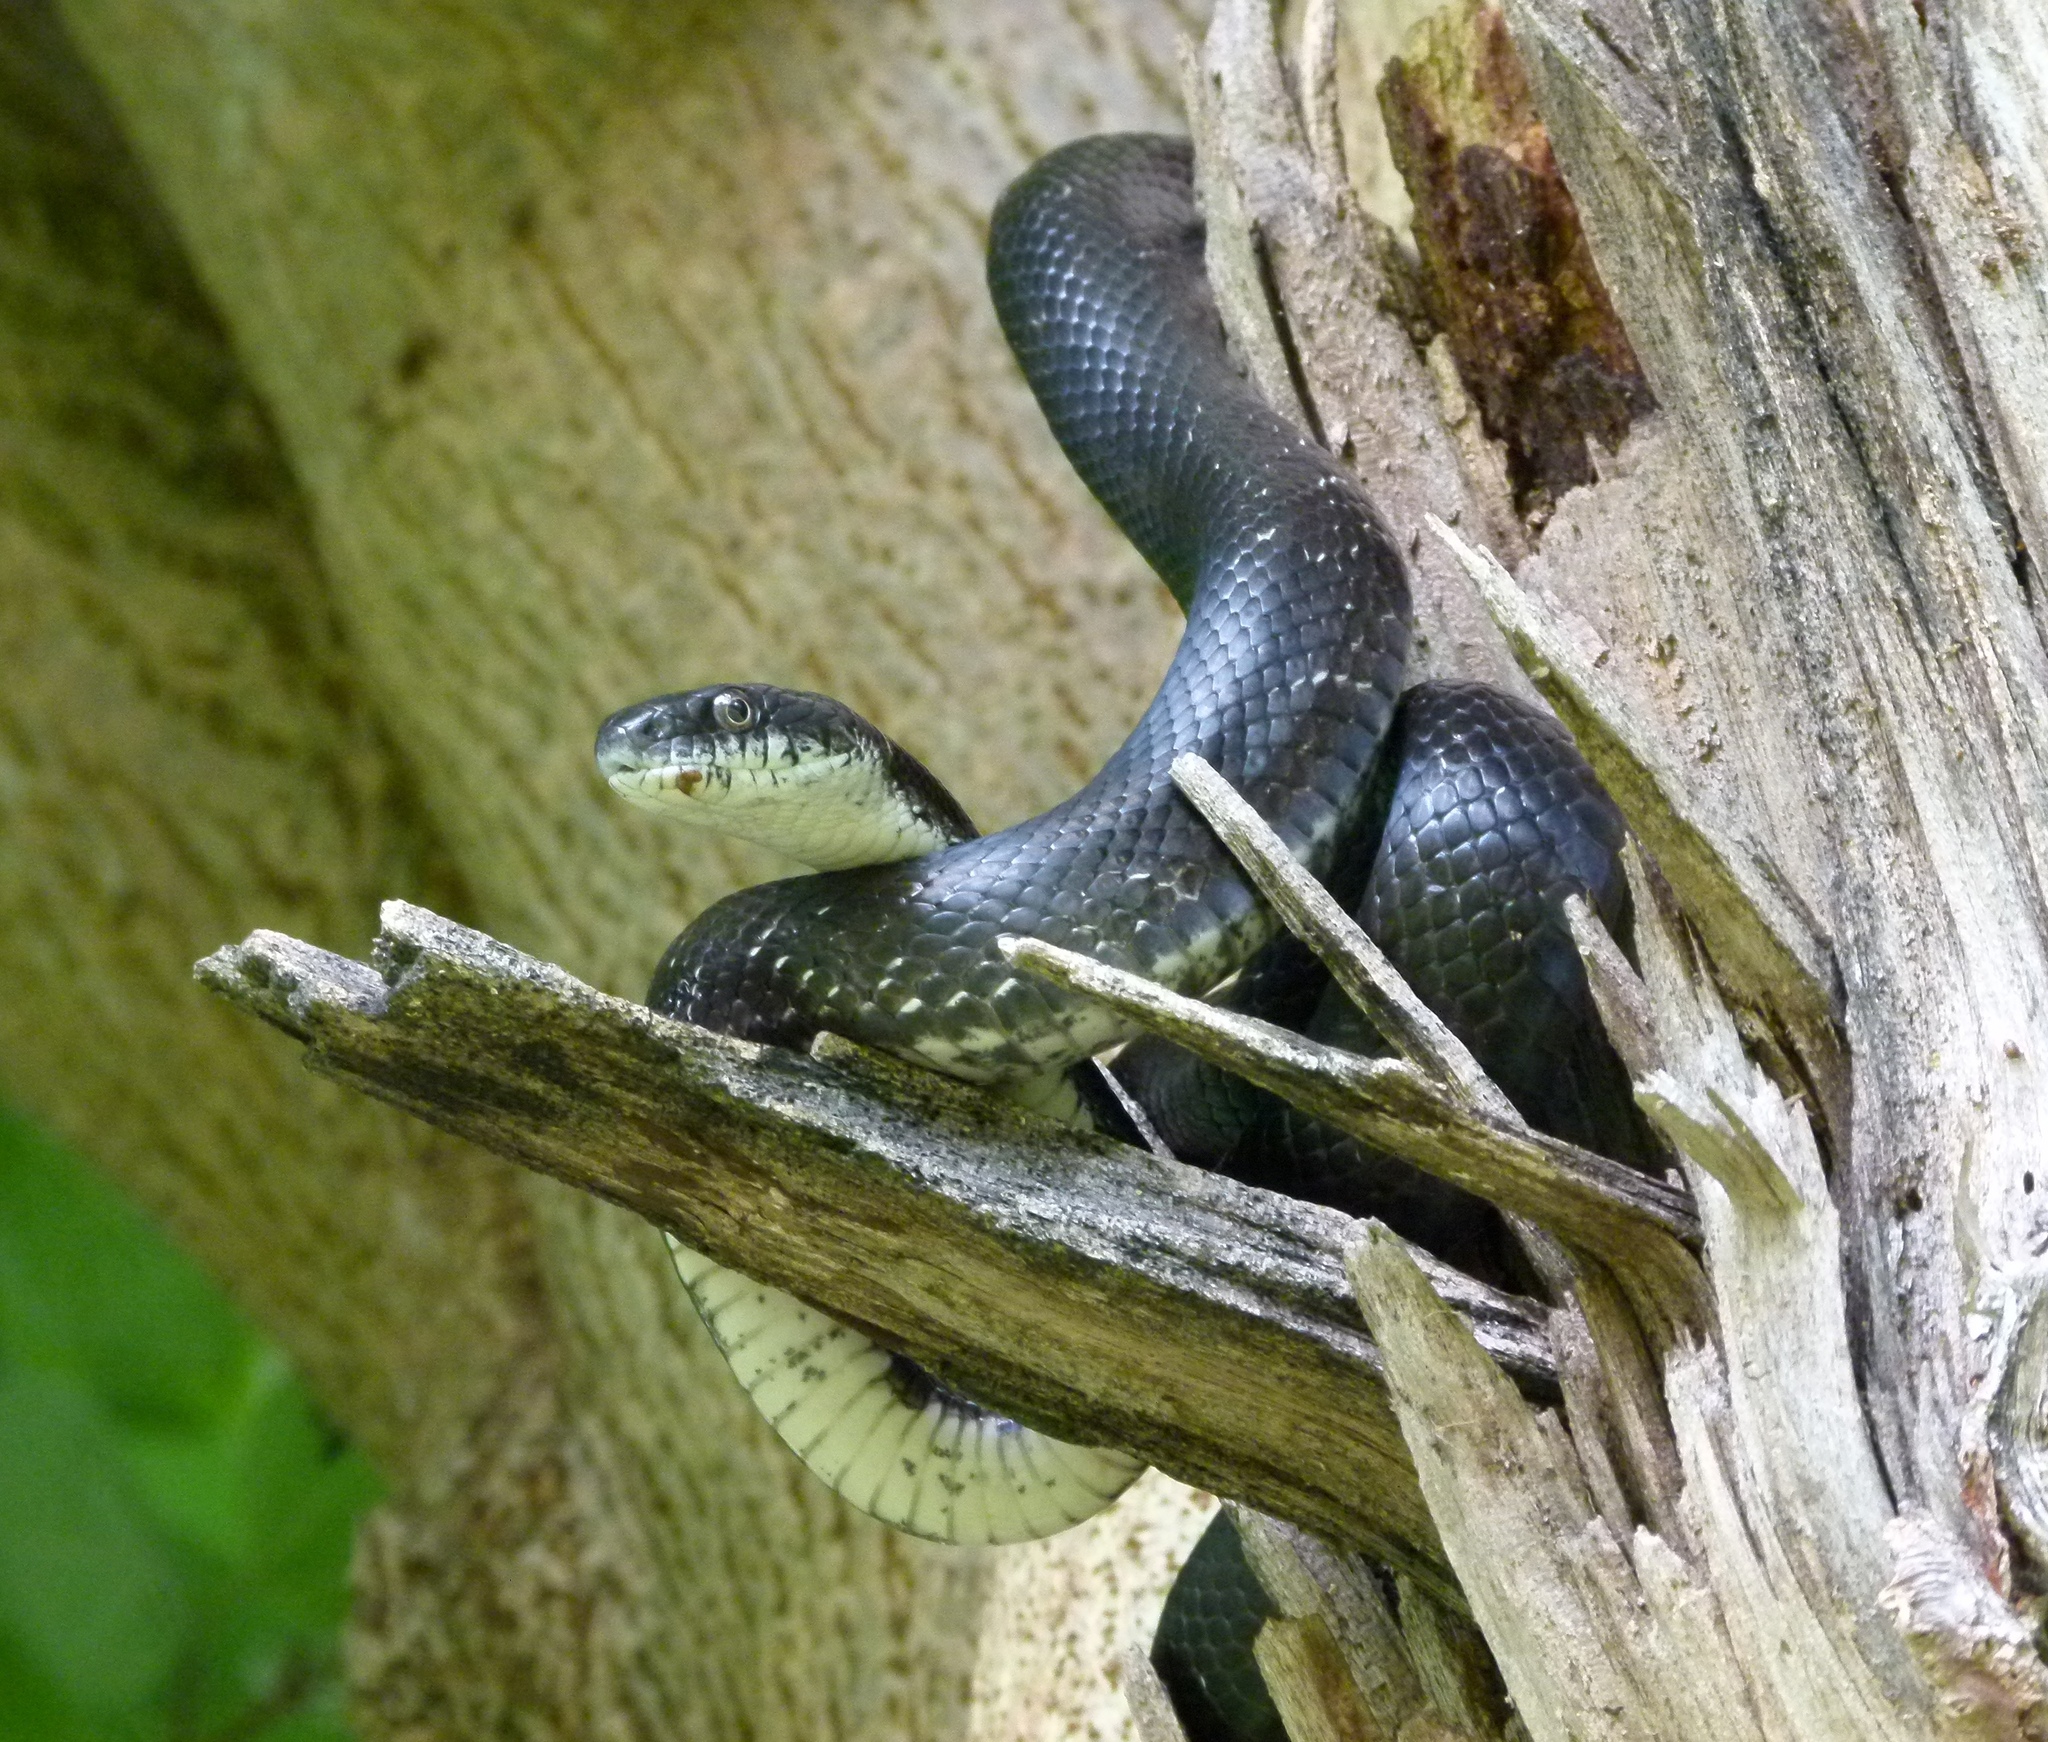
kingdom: Animalia
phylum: Chordata
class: Squamata
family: Colubridae
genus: Pantherophis
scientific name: Pantherophis alleghaniensis
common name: Eastern rat snake
